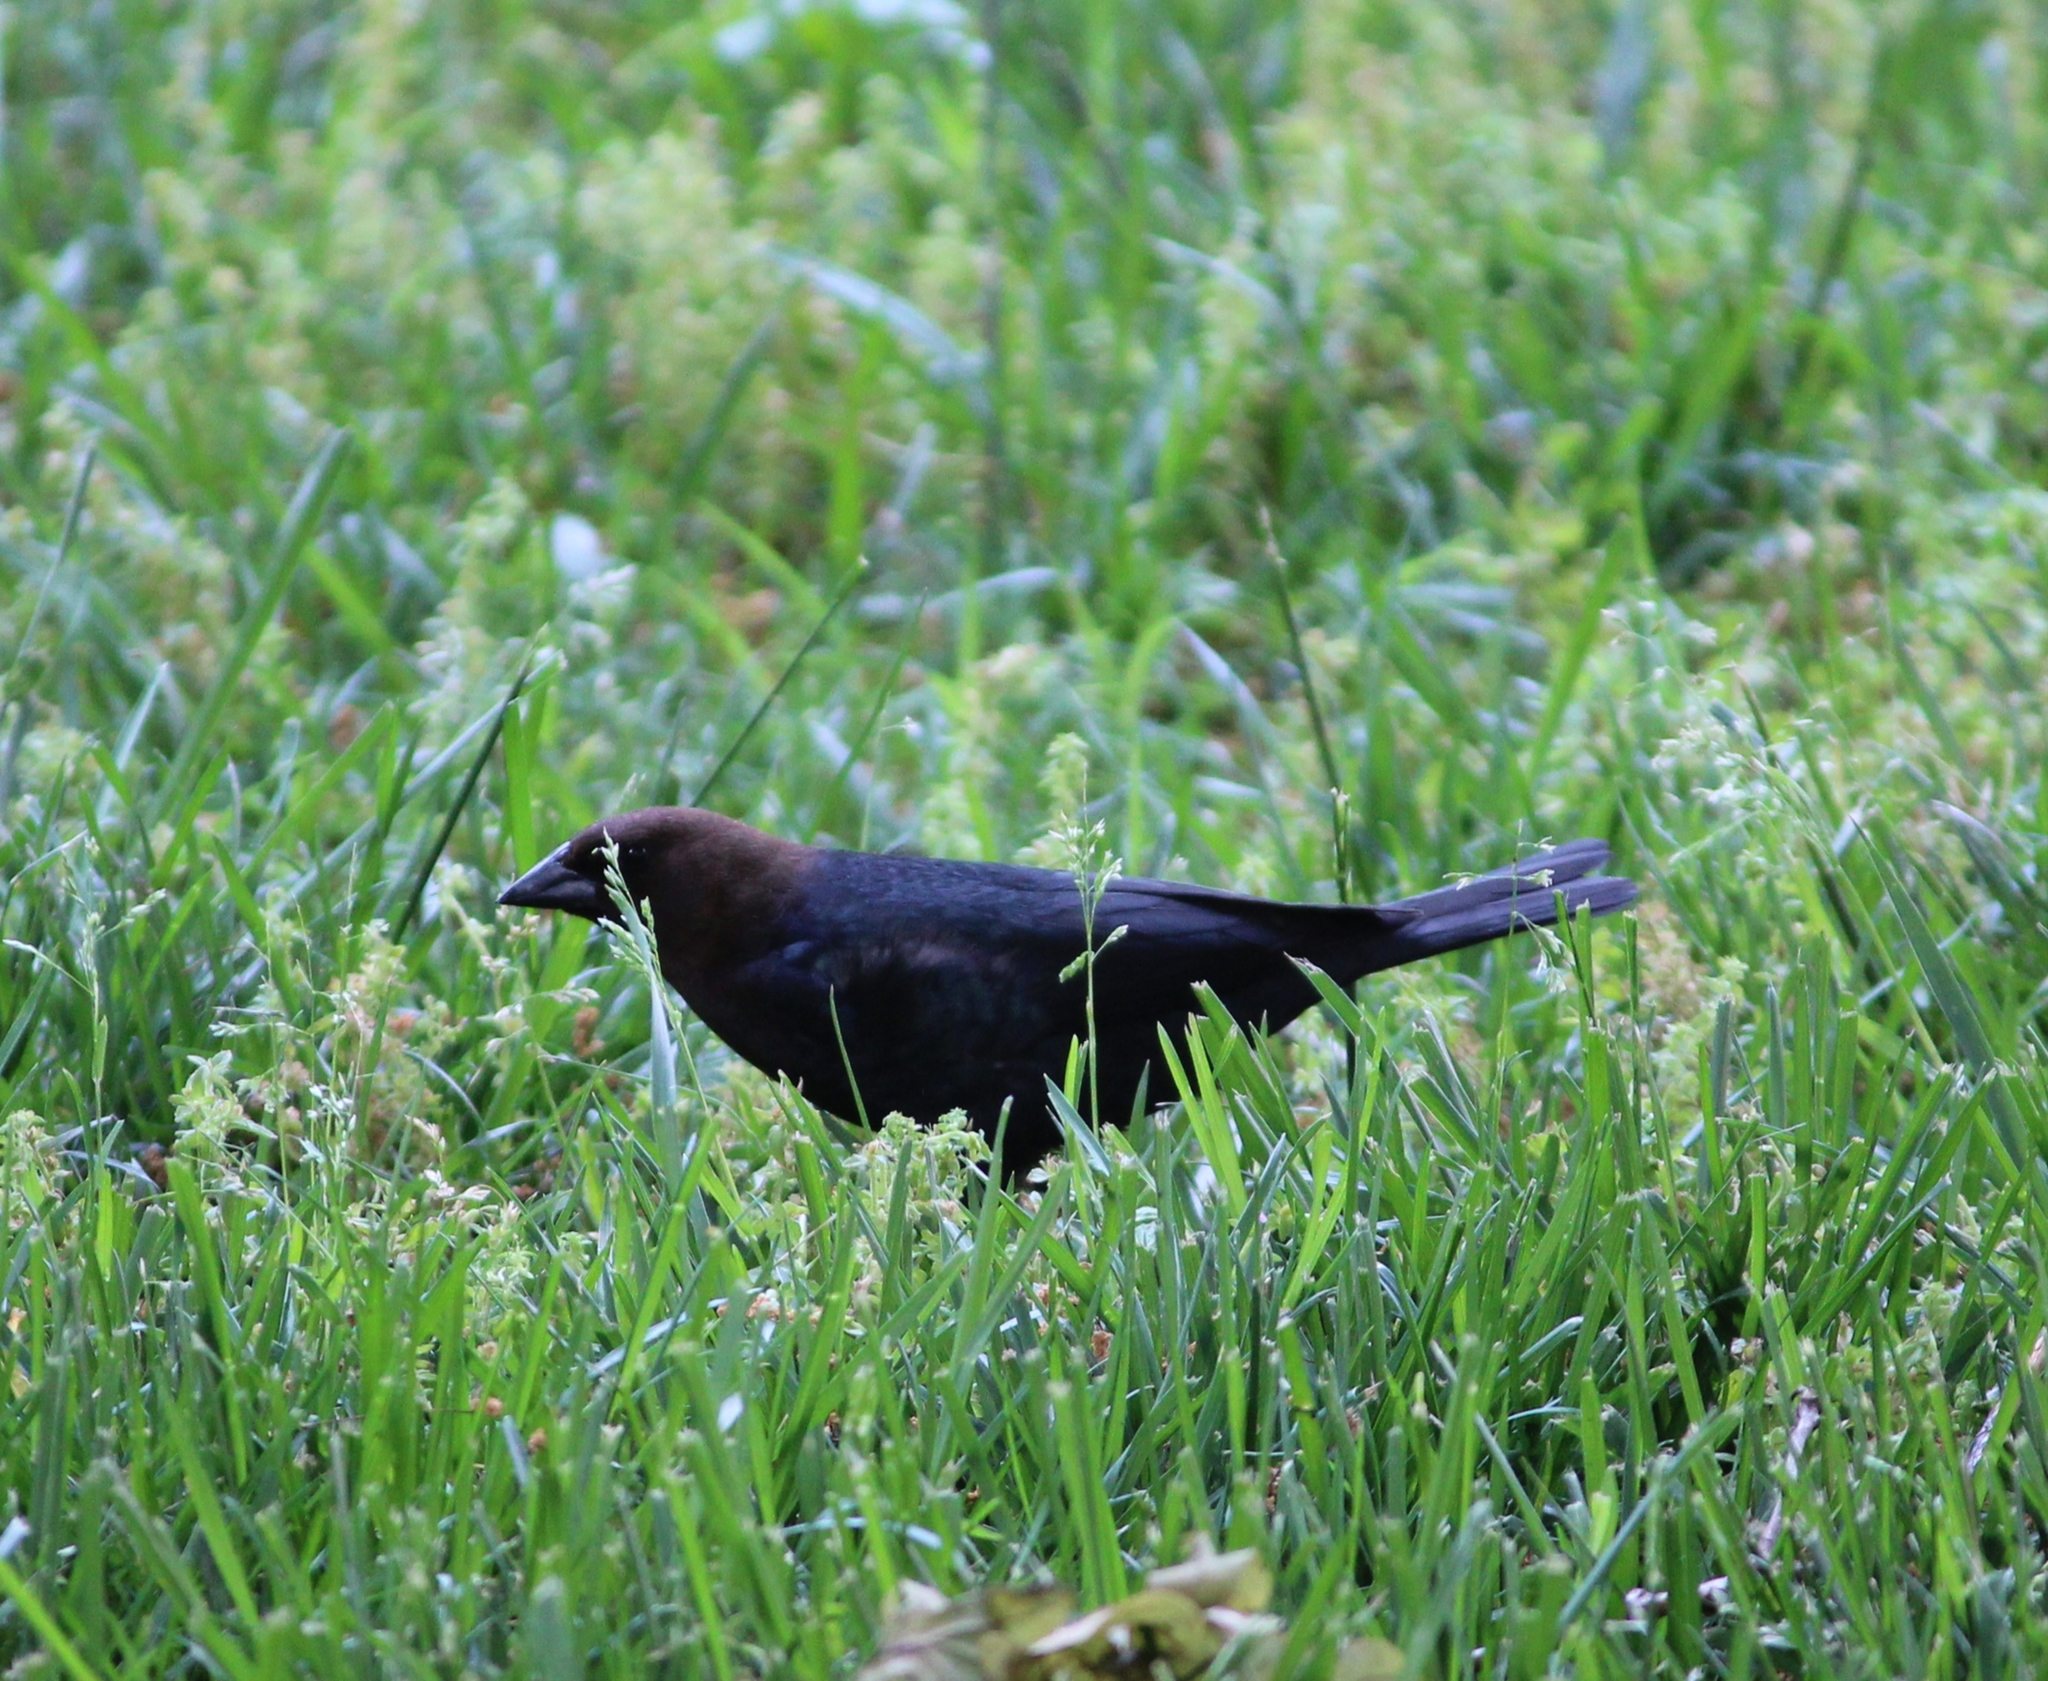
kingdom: Animalia
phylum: Chordata
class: Aves
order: Passeriformes
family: Icteridae
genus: Molothrus
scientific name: Molothrus ater
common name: Brown-headed cowbird
